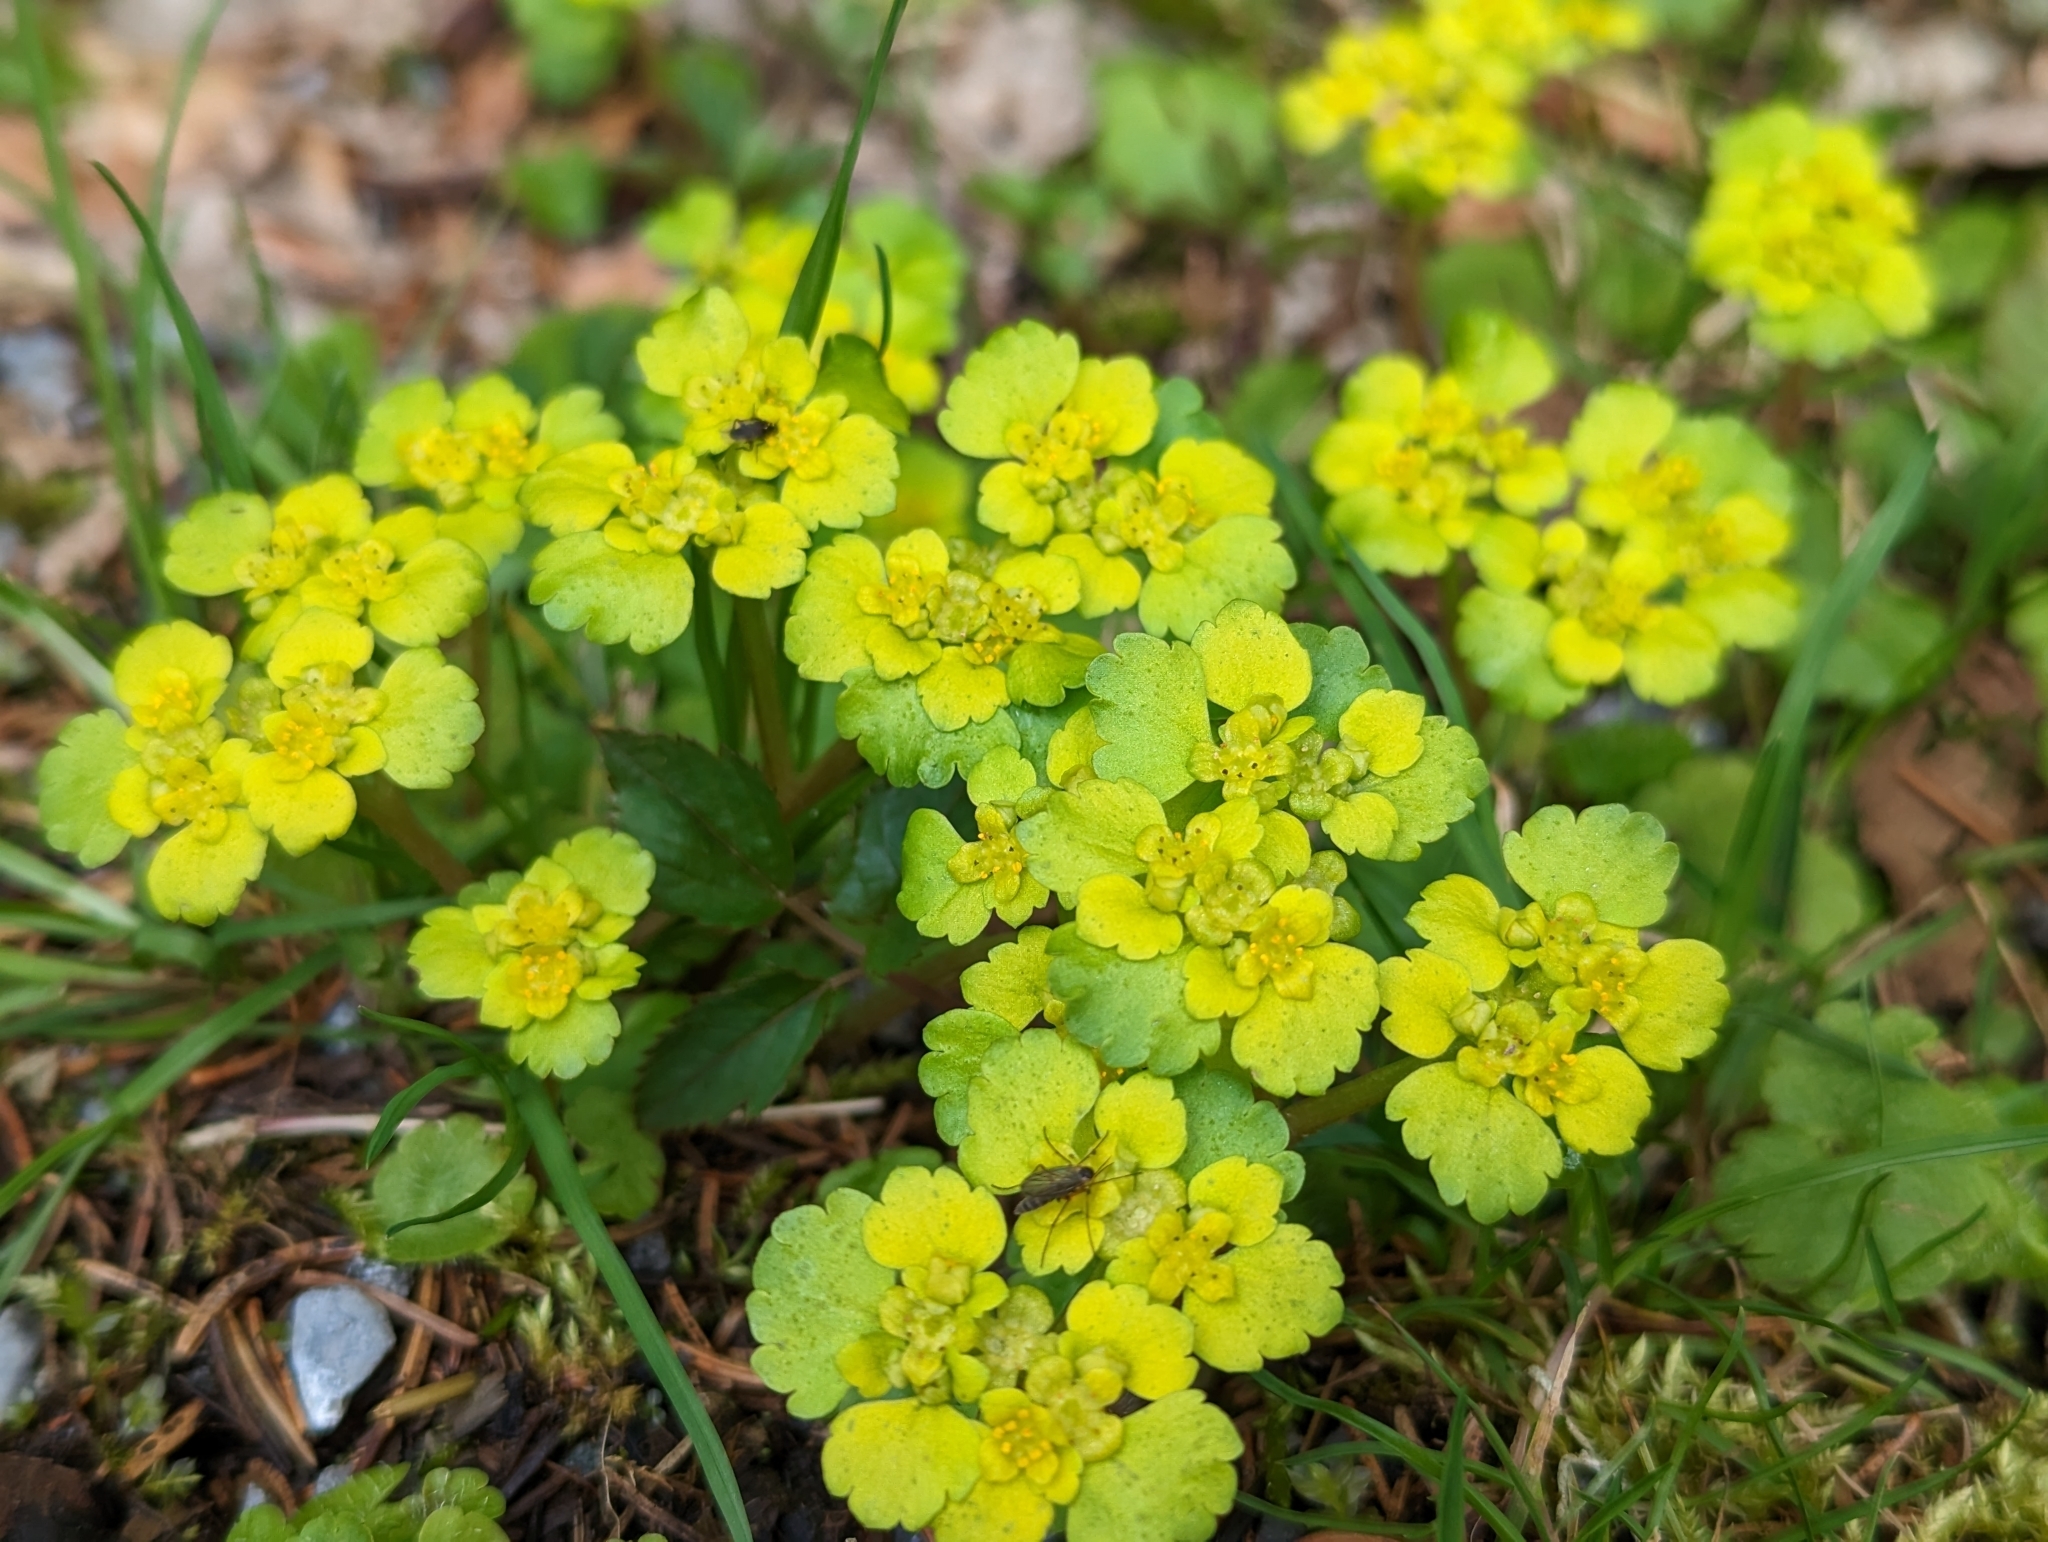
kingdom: Plantae
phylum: Tracheophyta
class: Magnoliopsida
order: Saxifragales
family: Saxifragaceae
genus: Chrysosplenium
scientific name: Chrysosplenium alternifolium
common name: Alternate-leaved golden-saxifrage
